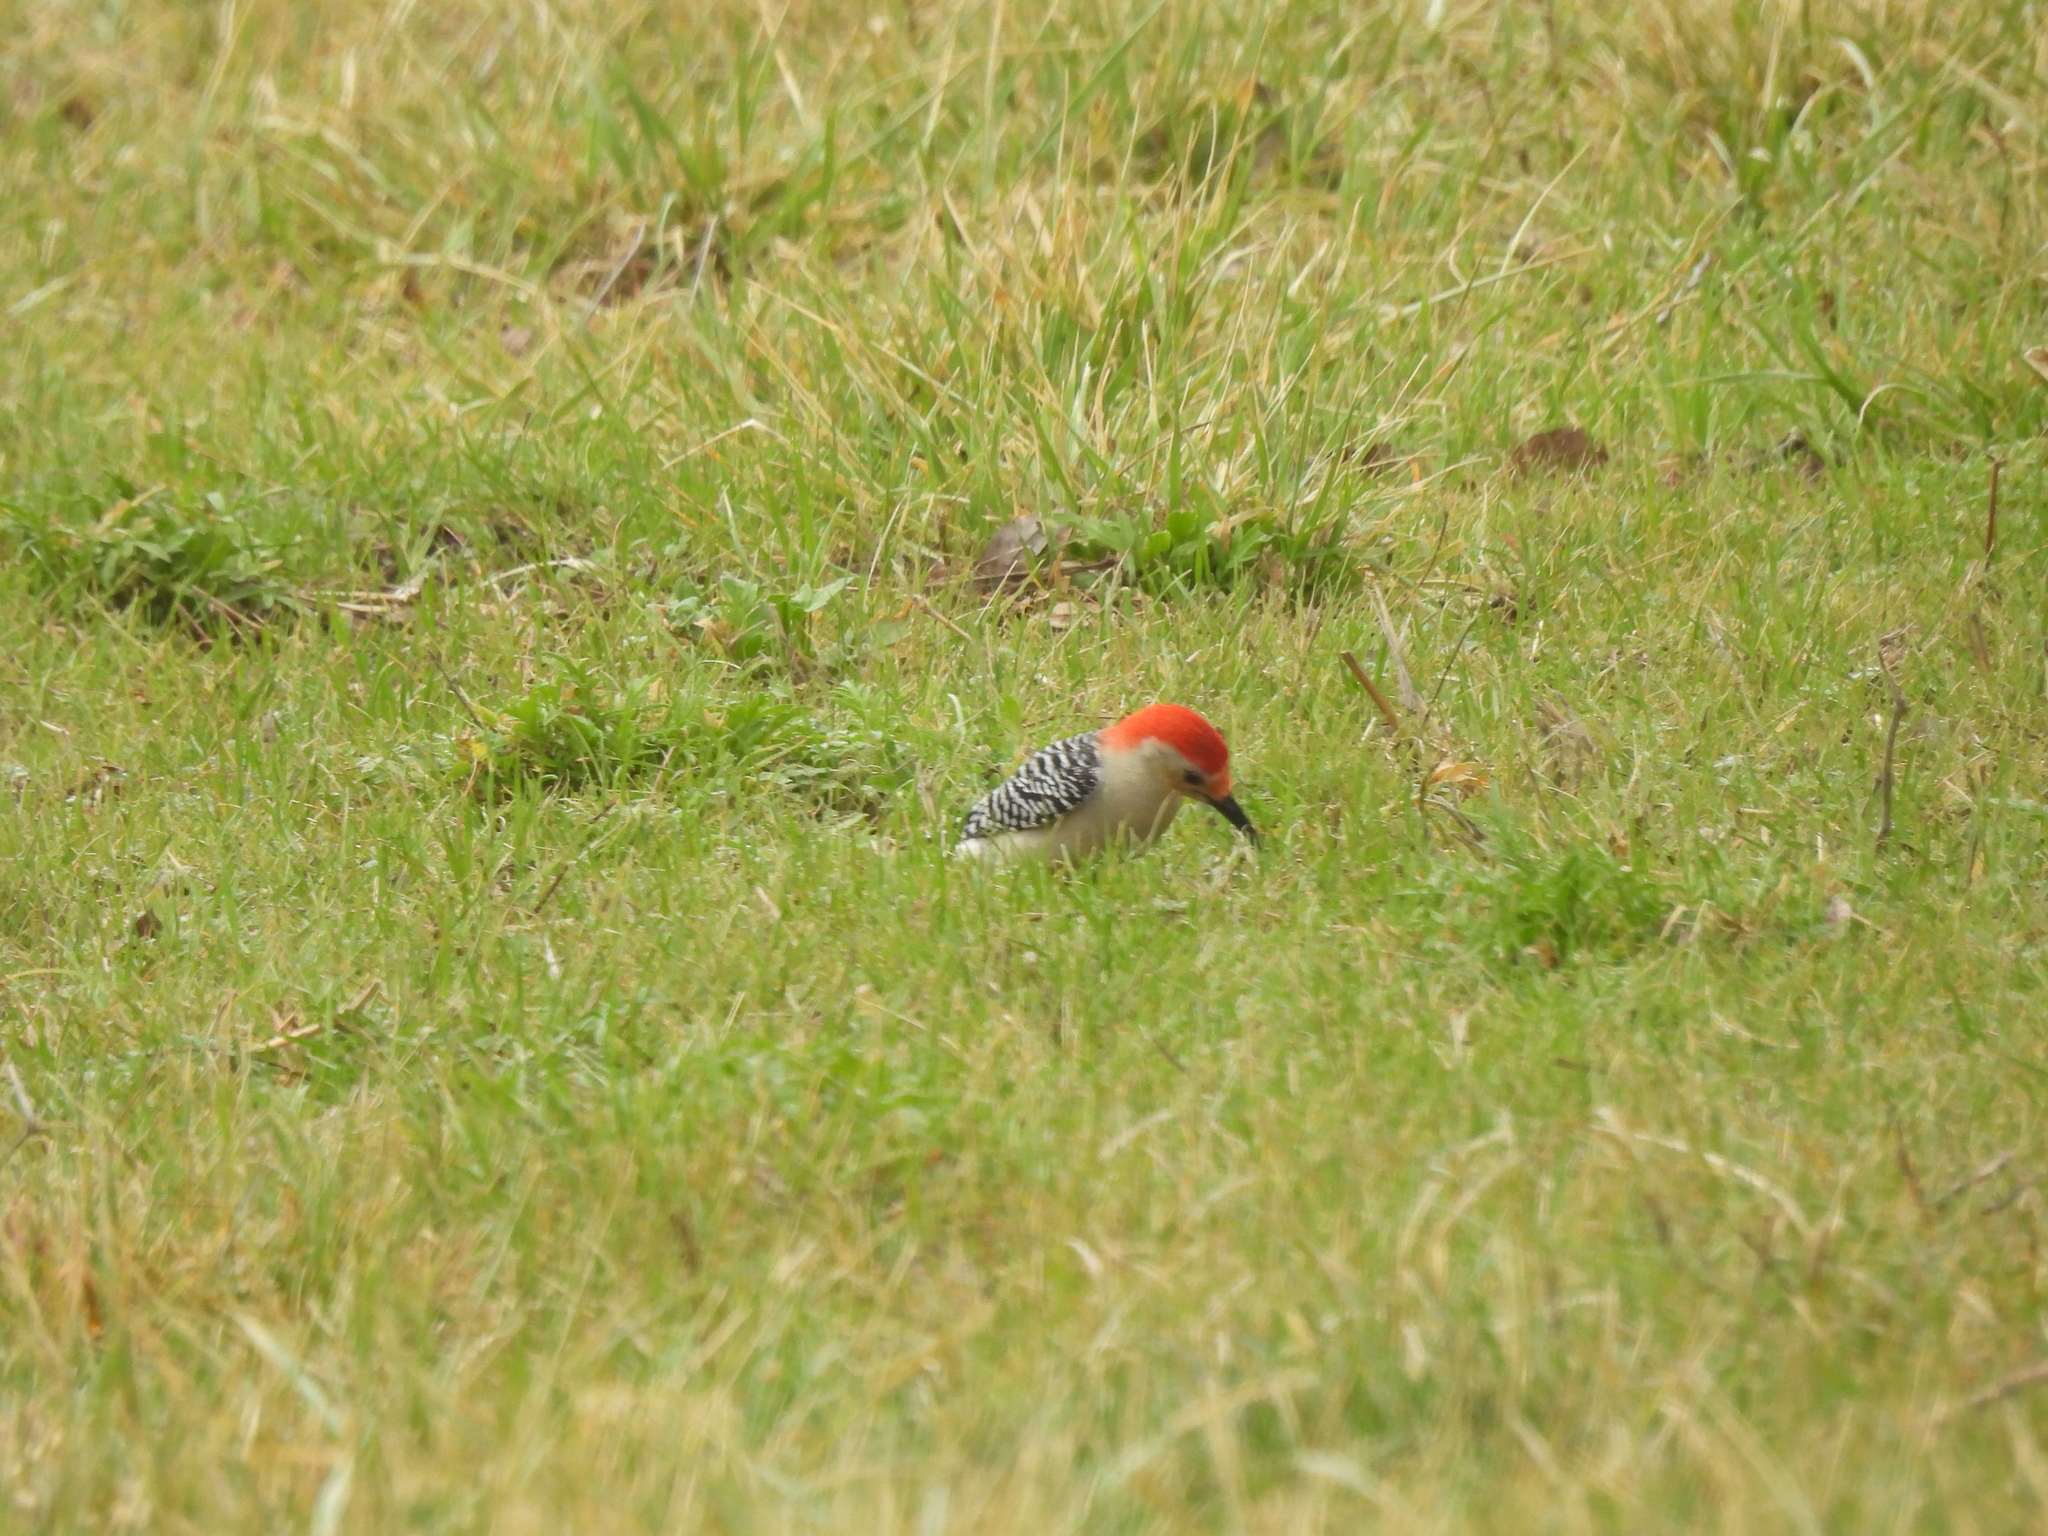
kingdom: Animalia
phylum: Chordata
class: Aves
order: Piciformes
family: Picidae
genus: Melanerpes
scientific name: Melanerpes carolinus
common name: Red-bellied woodpecker
